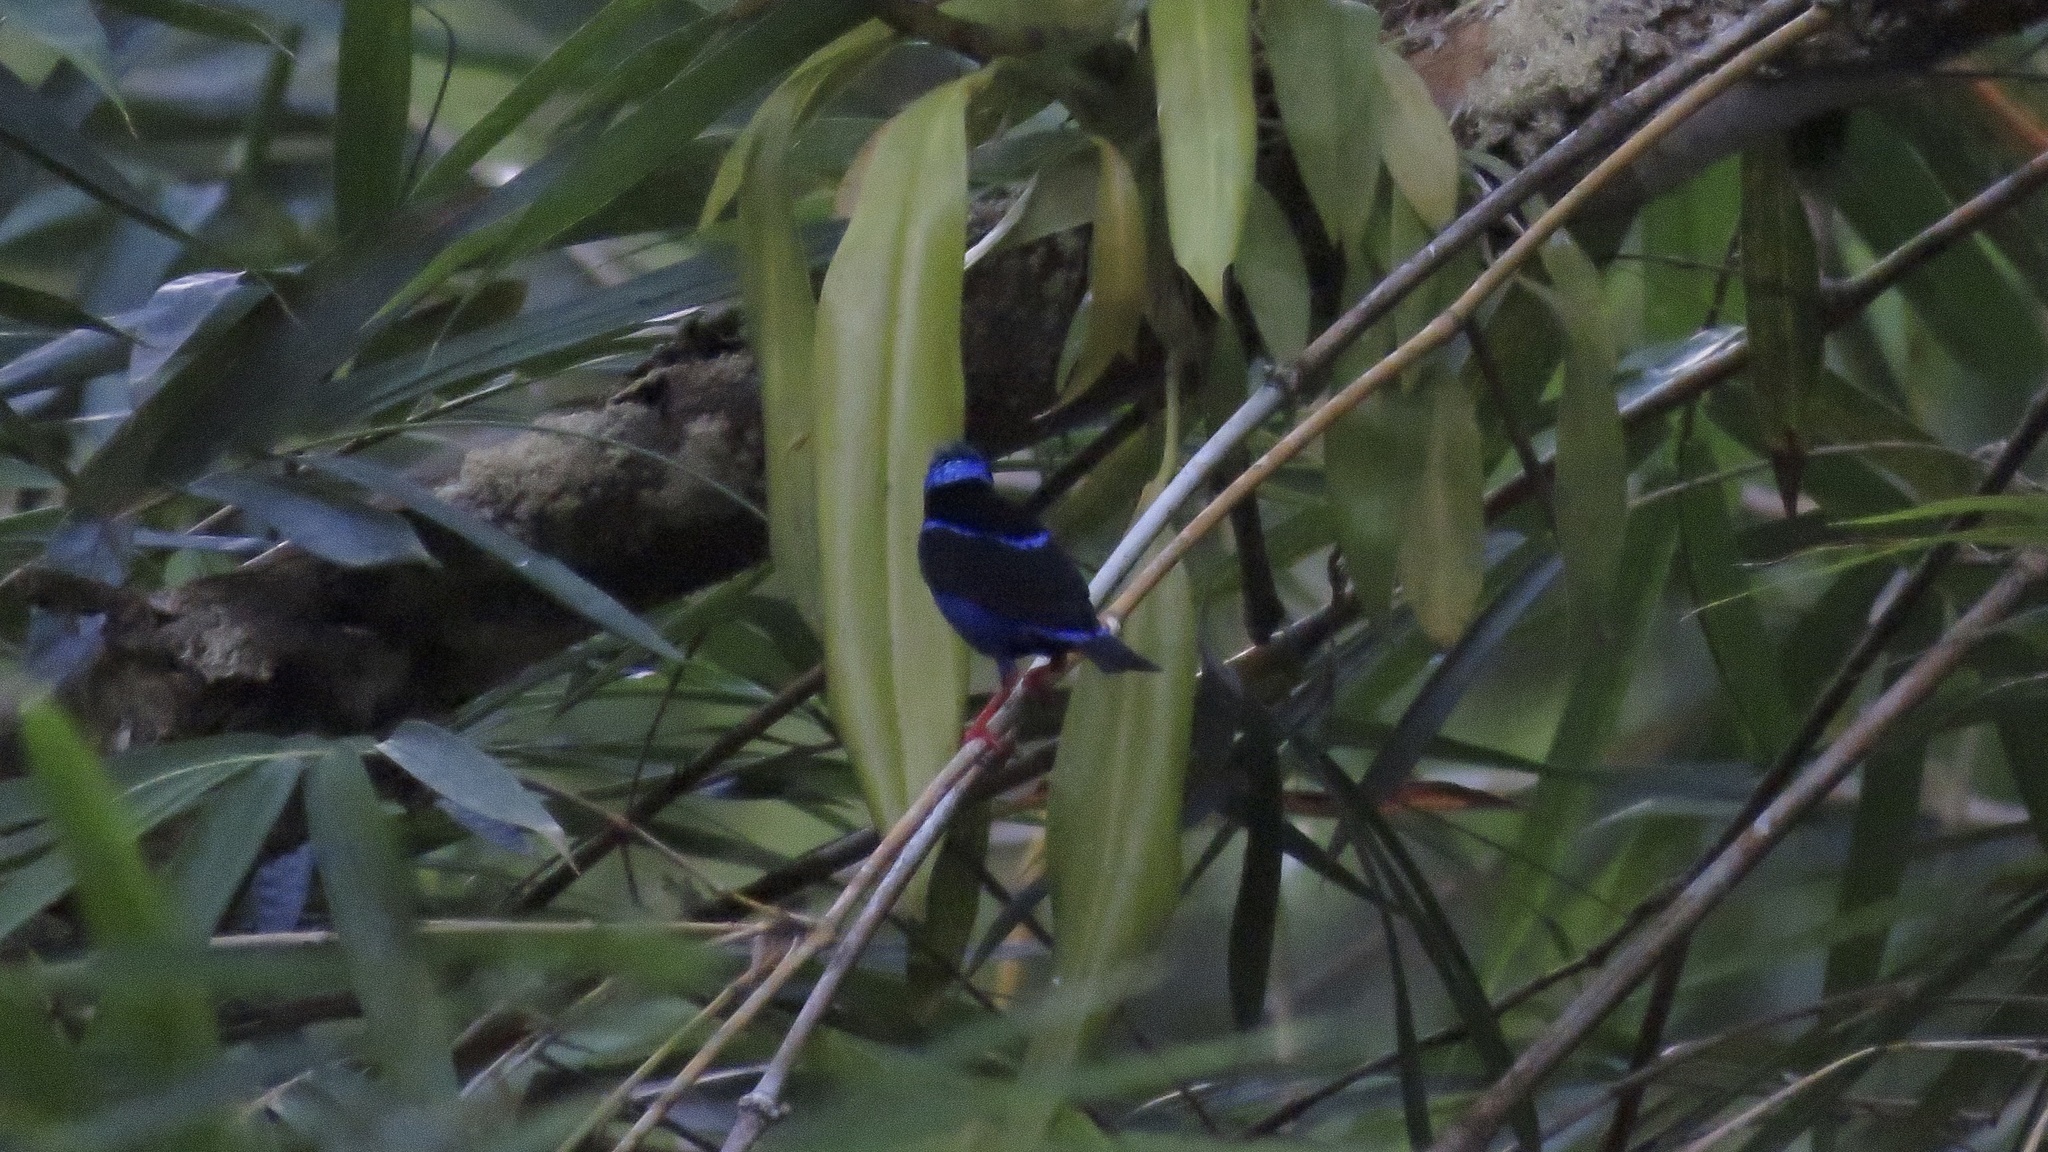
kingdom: Animalia
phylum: Chordata
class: Aves
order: Passeriformes
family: Thraupidae
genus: Cyanerpes
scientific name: Cyanerpes cyaneus
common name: Red-legged honeycreeper
